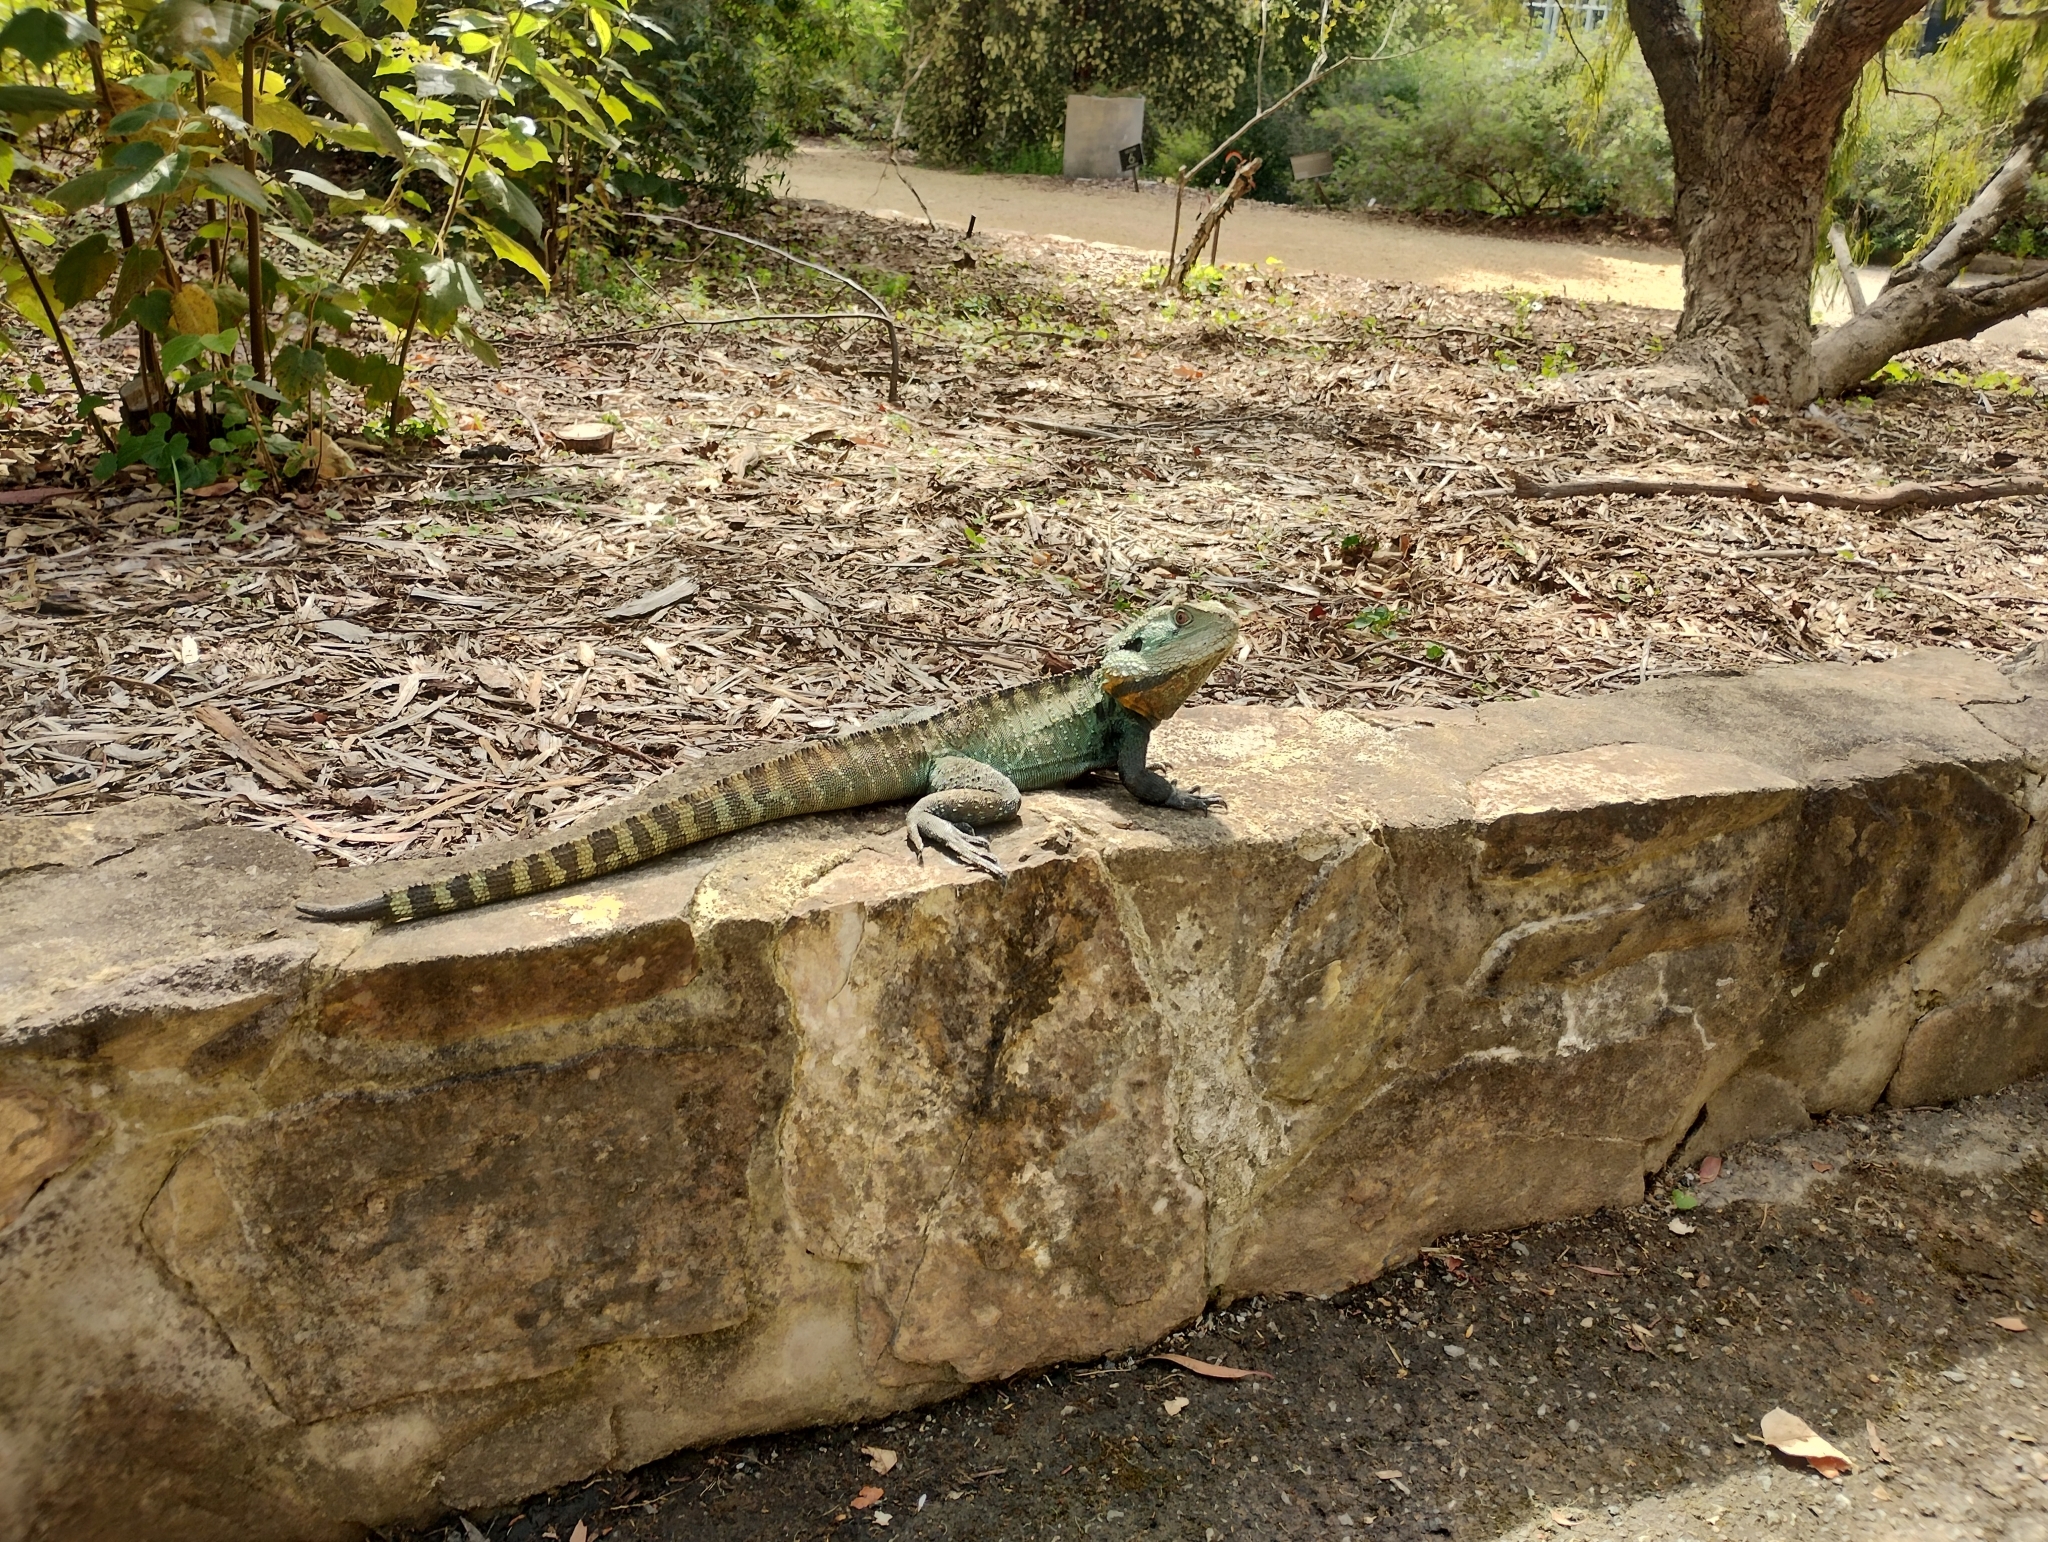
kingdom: Animalia
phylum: Chordata
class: Squamata
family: Agamidae
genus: Intellagama
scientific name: Intellagama lesueurii
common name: Eastern water dragon
